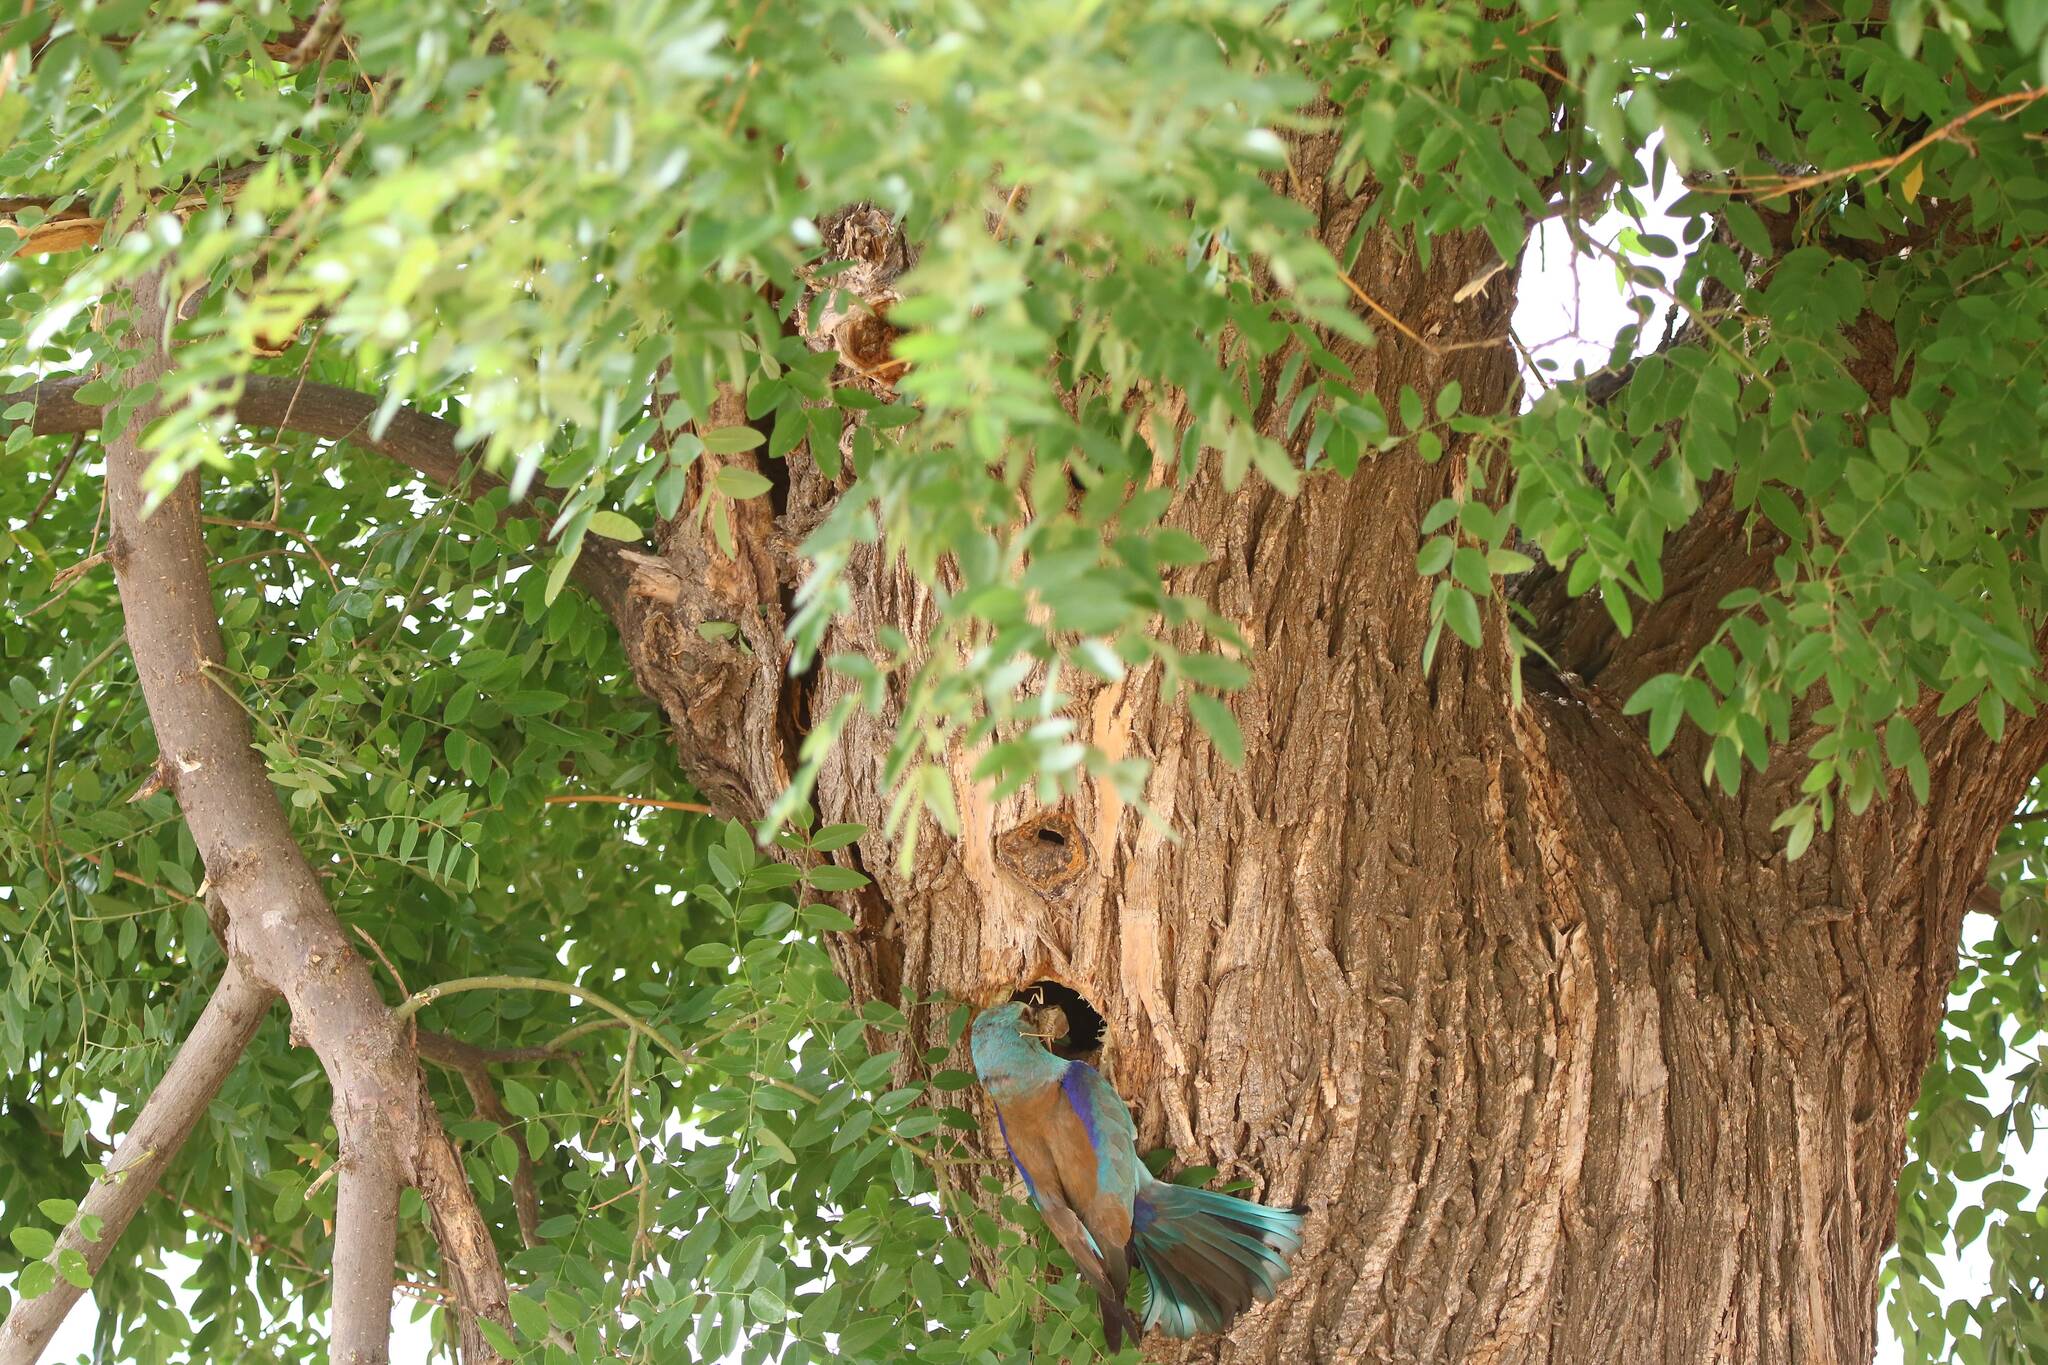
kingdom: Animalia
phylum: Chordata
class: Aves
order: Coraciiformes
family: Coraciidae
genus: Coracias
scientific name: Coracias garrulus
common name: European roller
